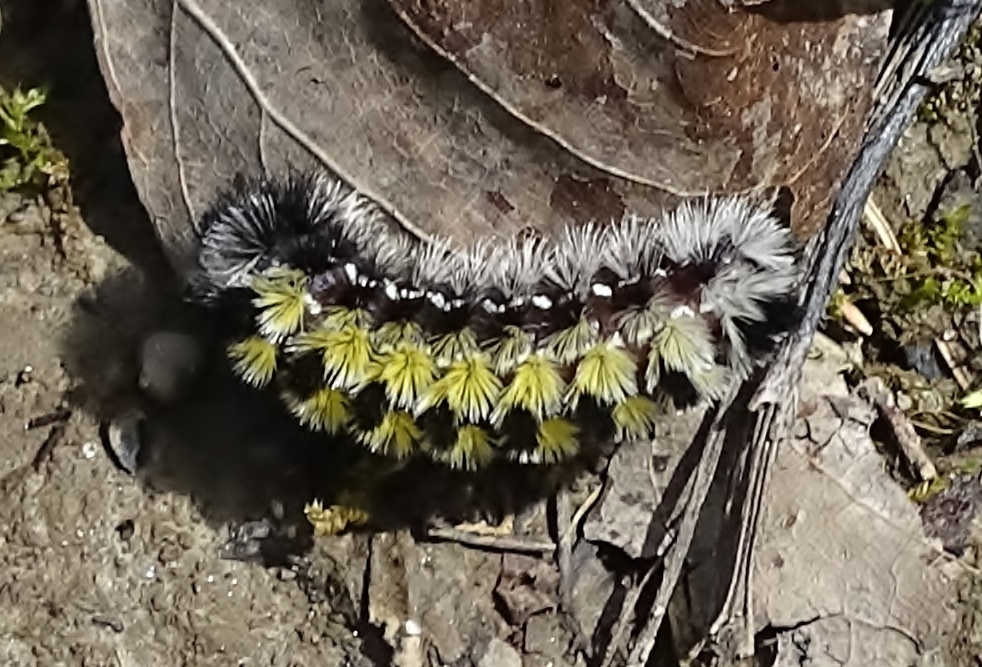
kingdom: Animalia
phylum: Arthropoda
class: Insecta
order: Lepidoptera
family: Erebidae
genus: Ctenucha
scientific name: Ctenucha virginica
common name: Virginia ctenucha moth
